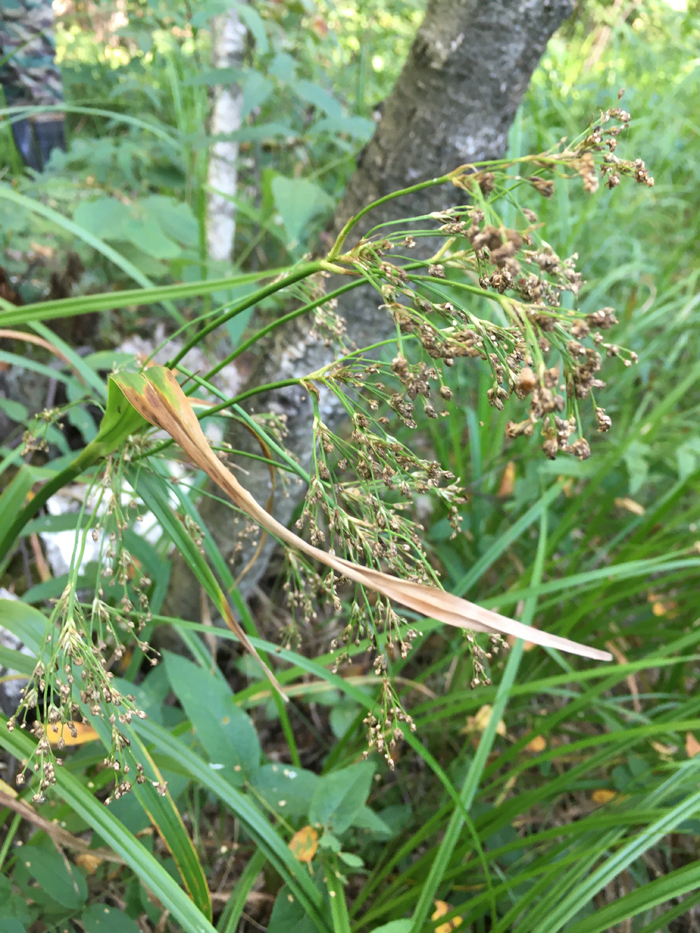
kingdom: Plantae
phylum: Tracheophyta
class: Liliopsida
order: Poales
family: Cyperaceae
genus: Scirpus
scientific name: Scirpus sylvaticus
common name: Wood club-rush
